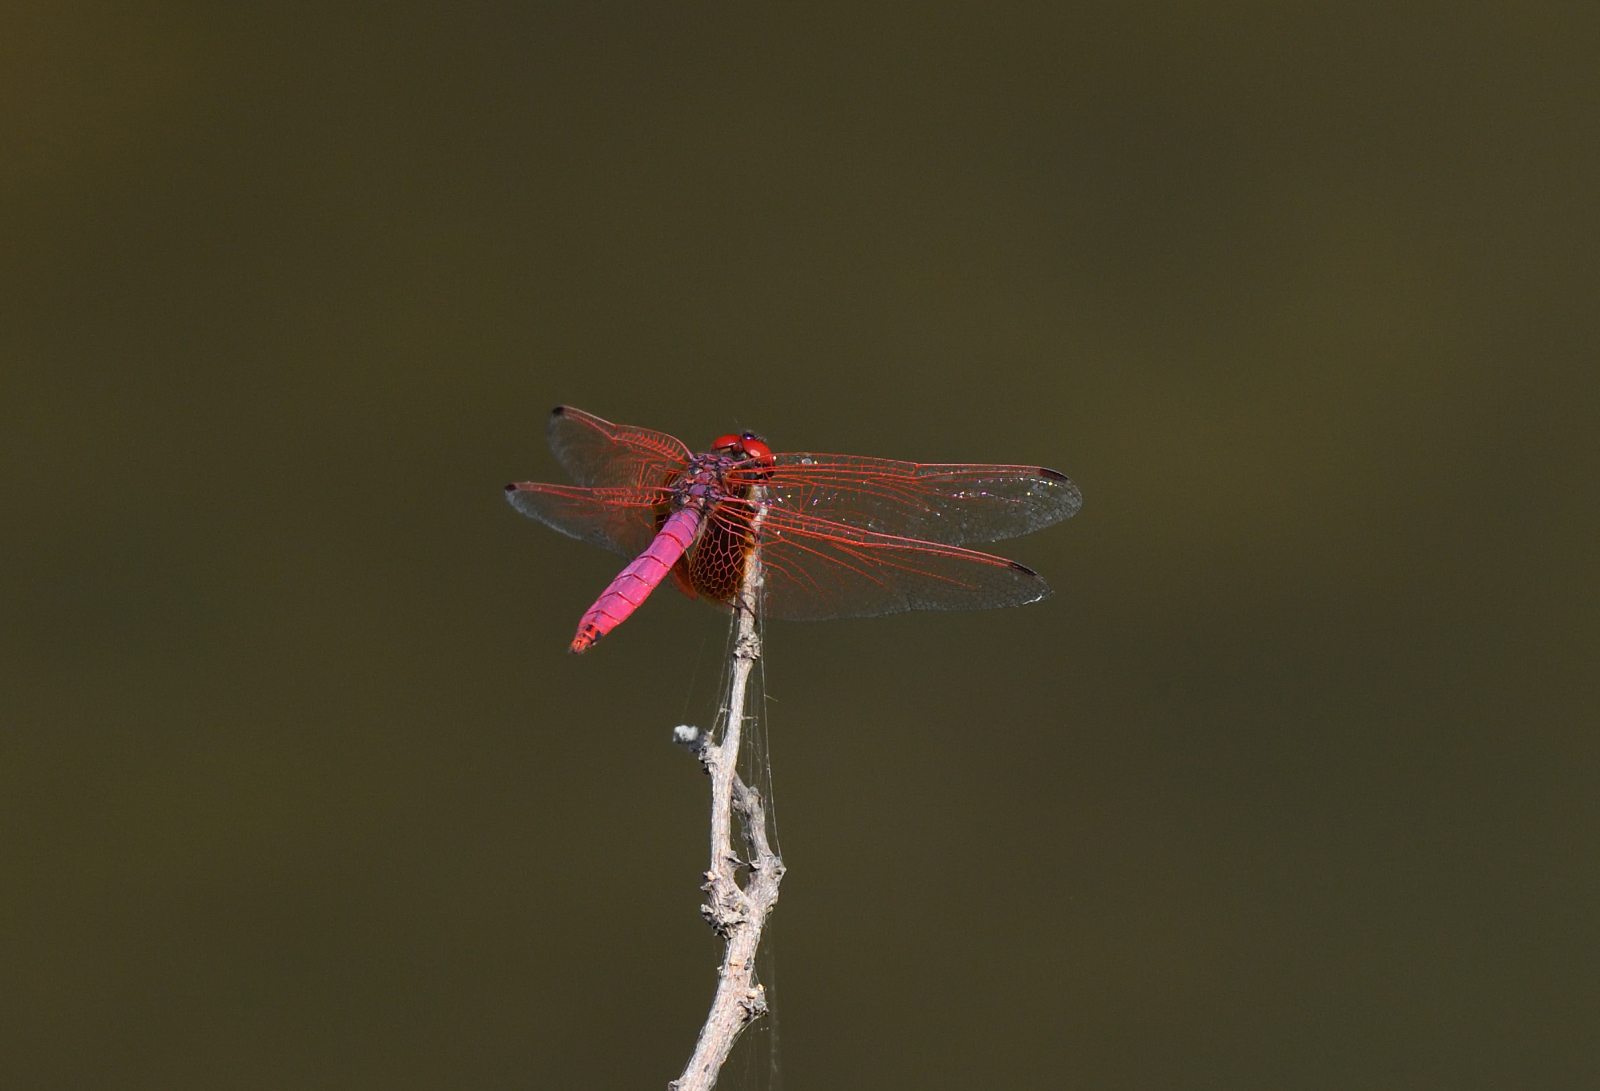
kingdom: Animalia
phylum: Arthropoda
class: Insecta
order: Odonata
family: Libellulidae
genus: Trithemis
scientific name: Trithemis aurora
